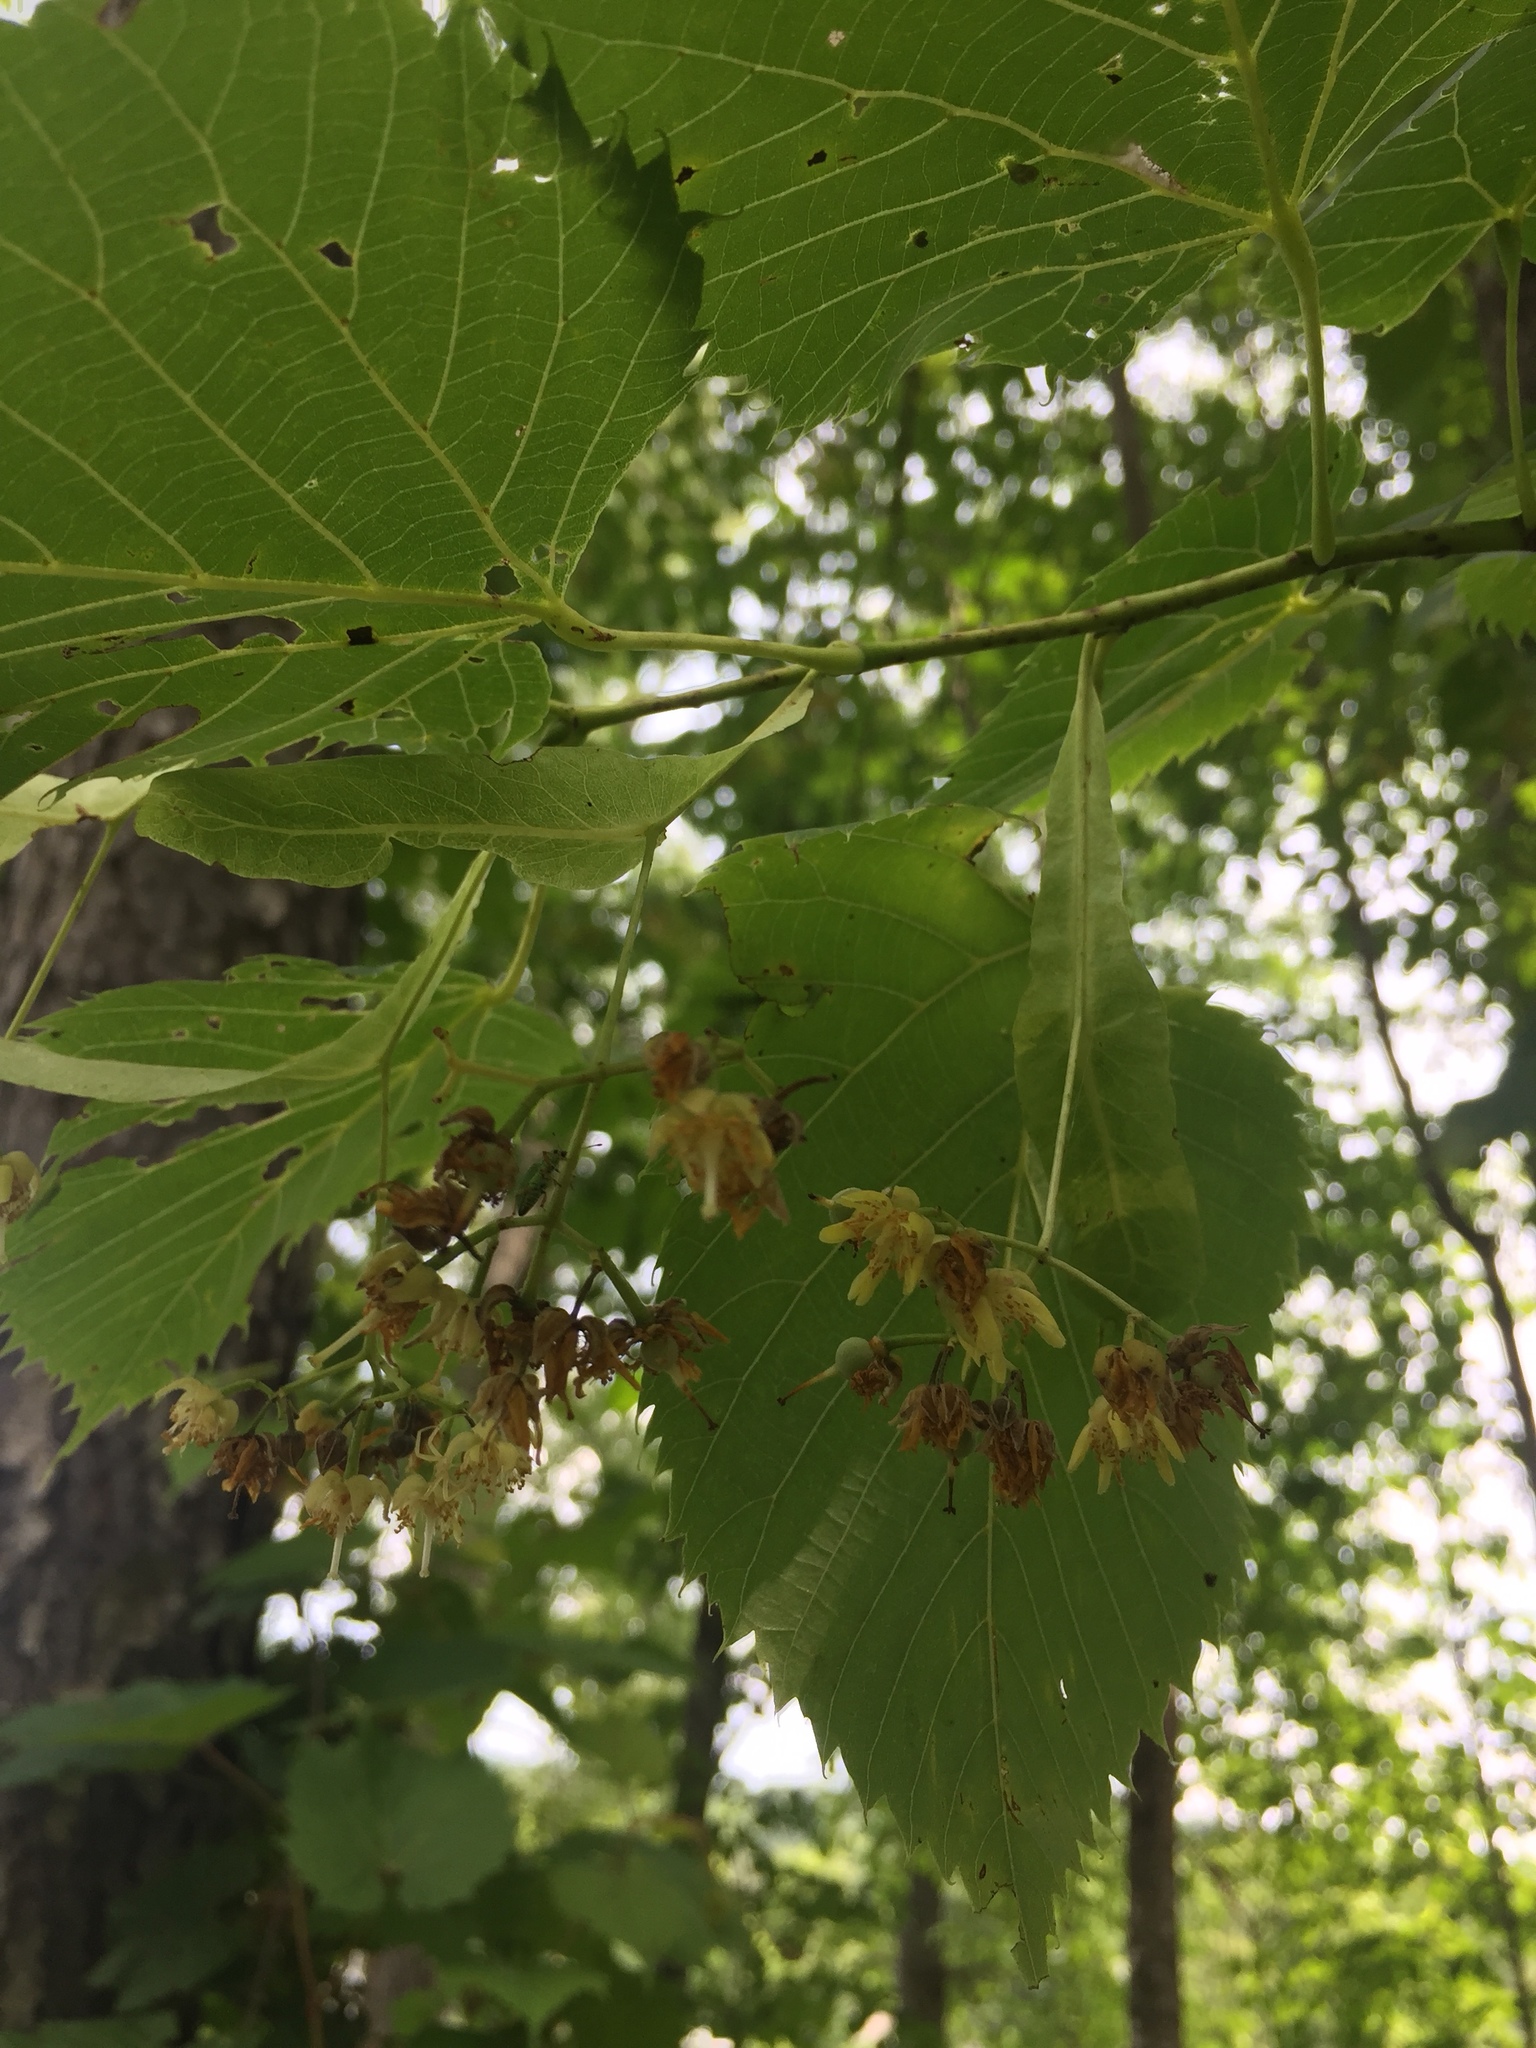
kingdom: Plantae
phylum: Tracheophyta
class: Magnoliopsida
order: Malvales
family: Malvaceae
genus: Tilia
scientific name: Tilia americana
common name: Basswood
